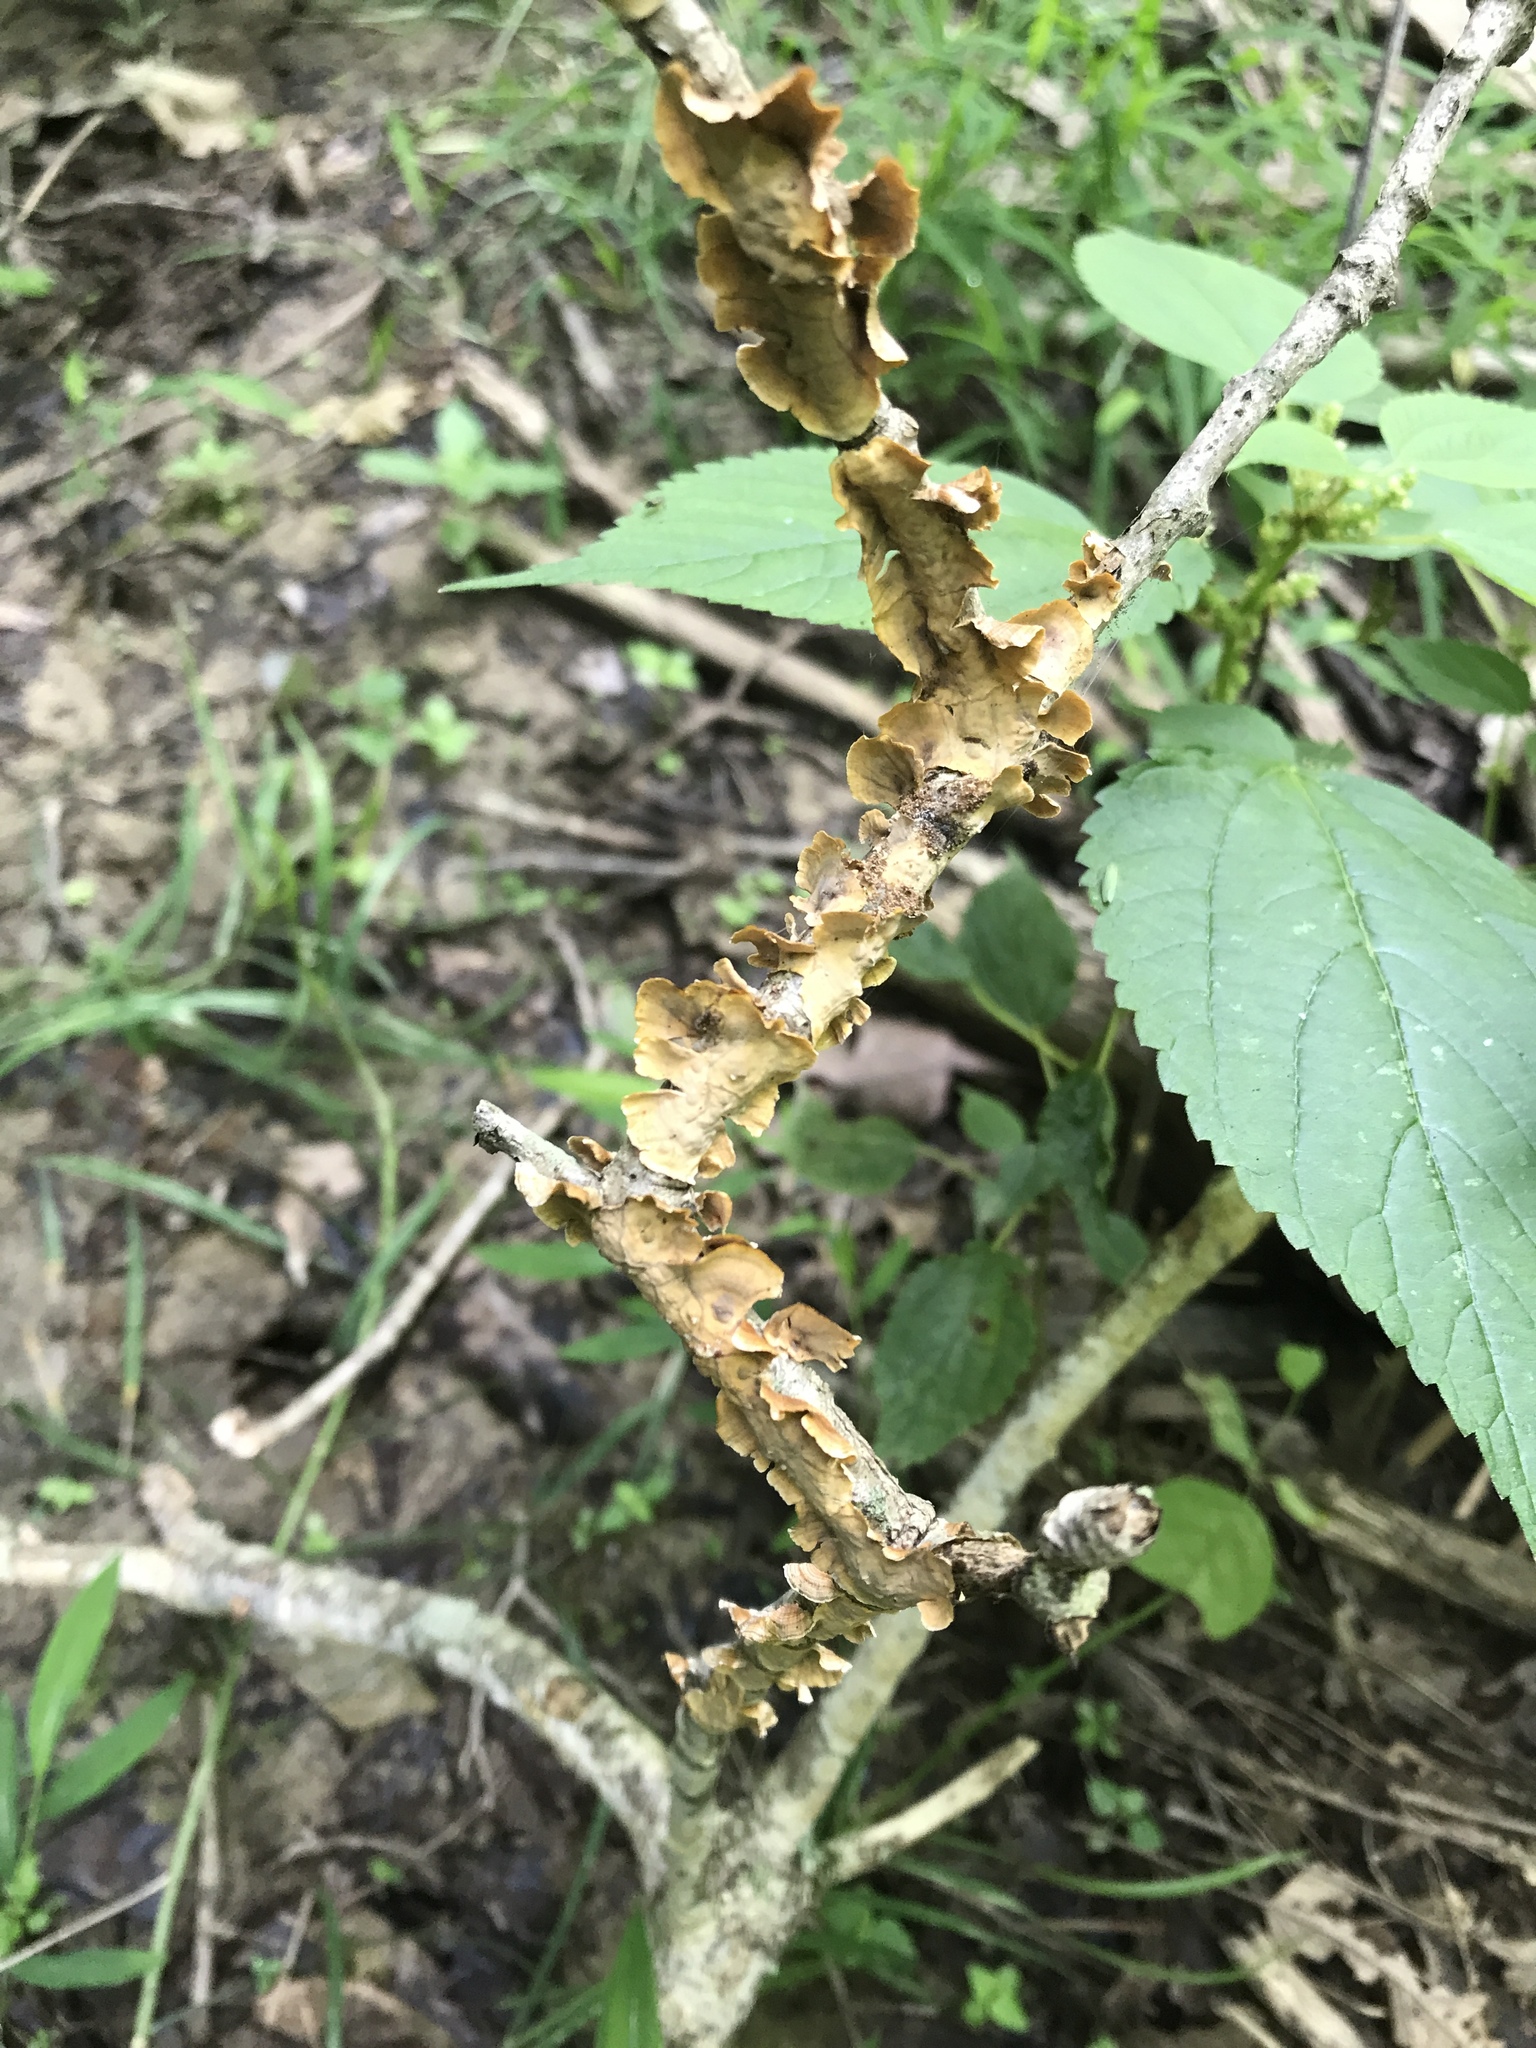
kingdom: Fungi
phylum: Basidiomycota
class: Agaricomycetes
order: Russulales
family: Stereaceae
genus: Stereum
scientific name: Stereum complicatum
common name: Crowded parchment
